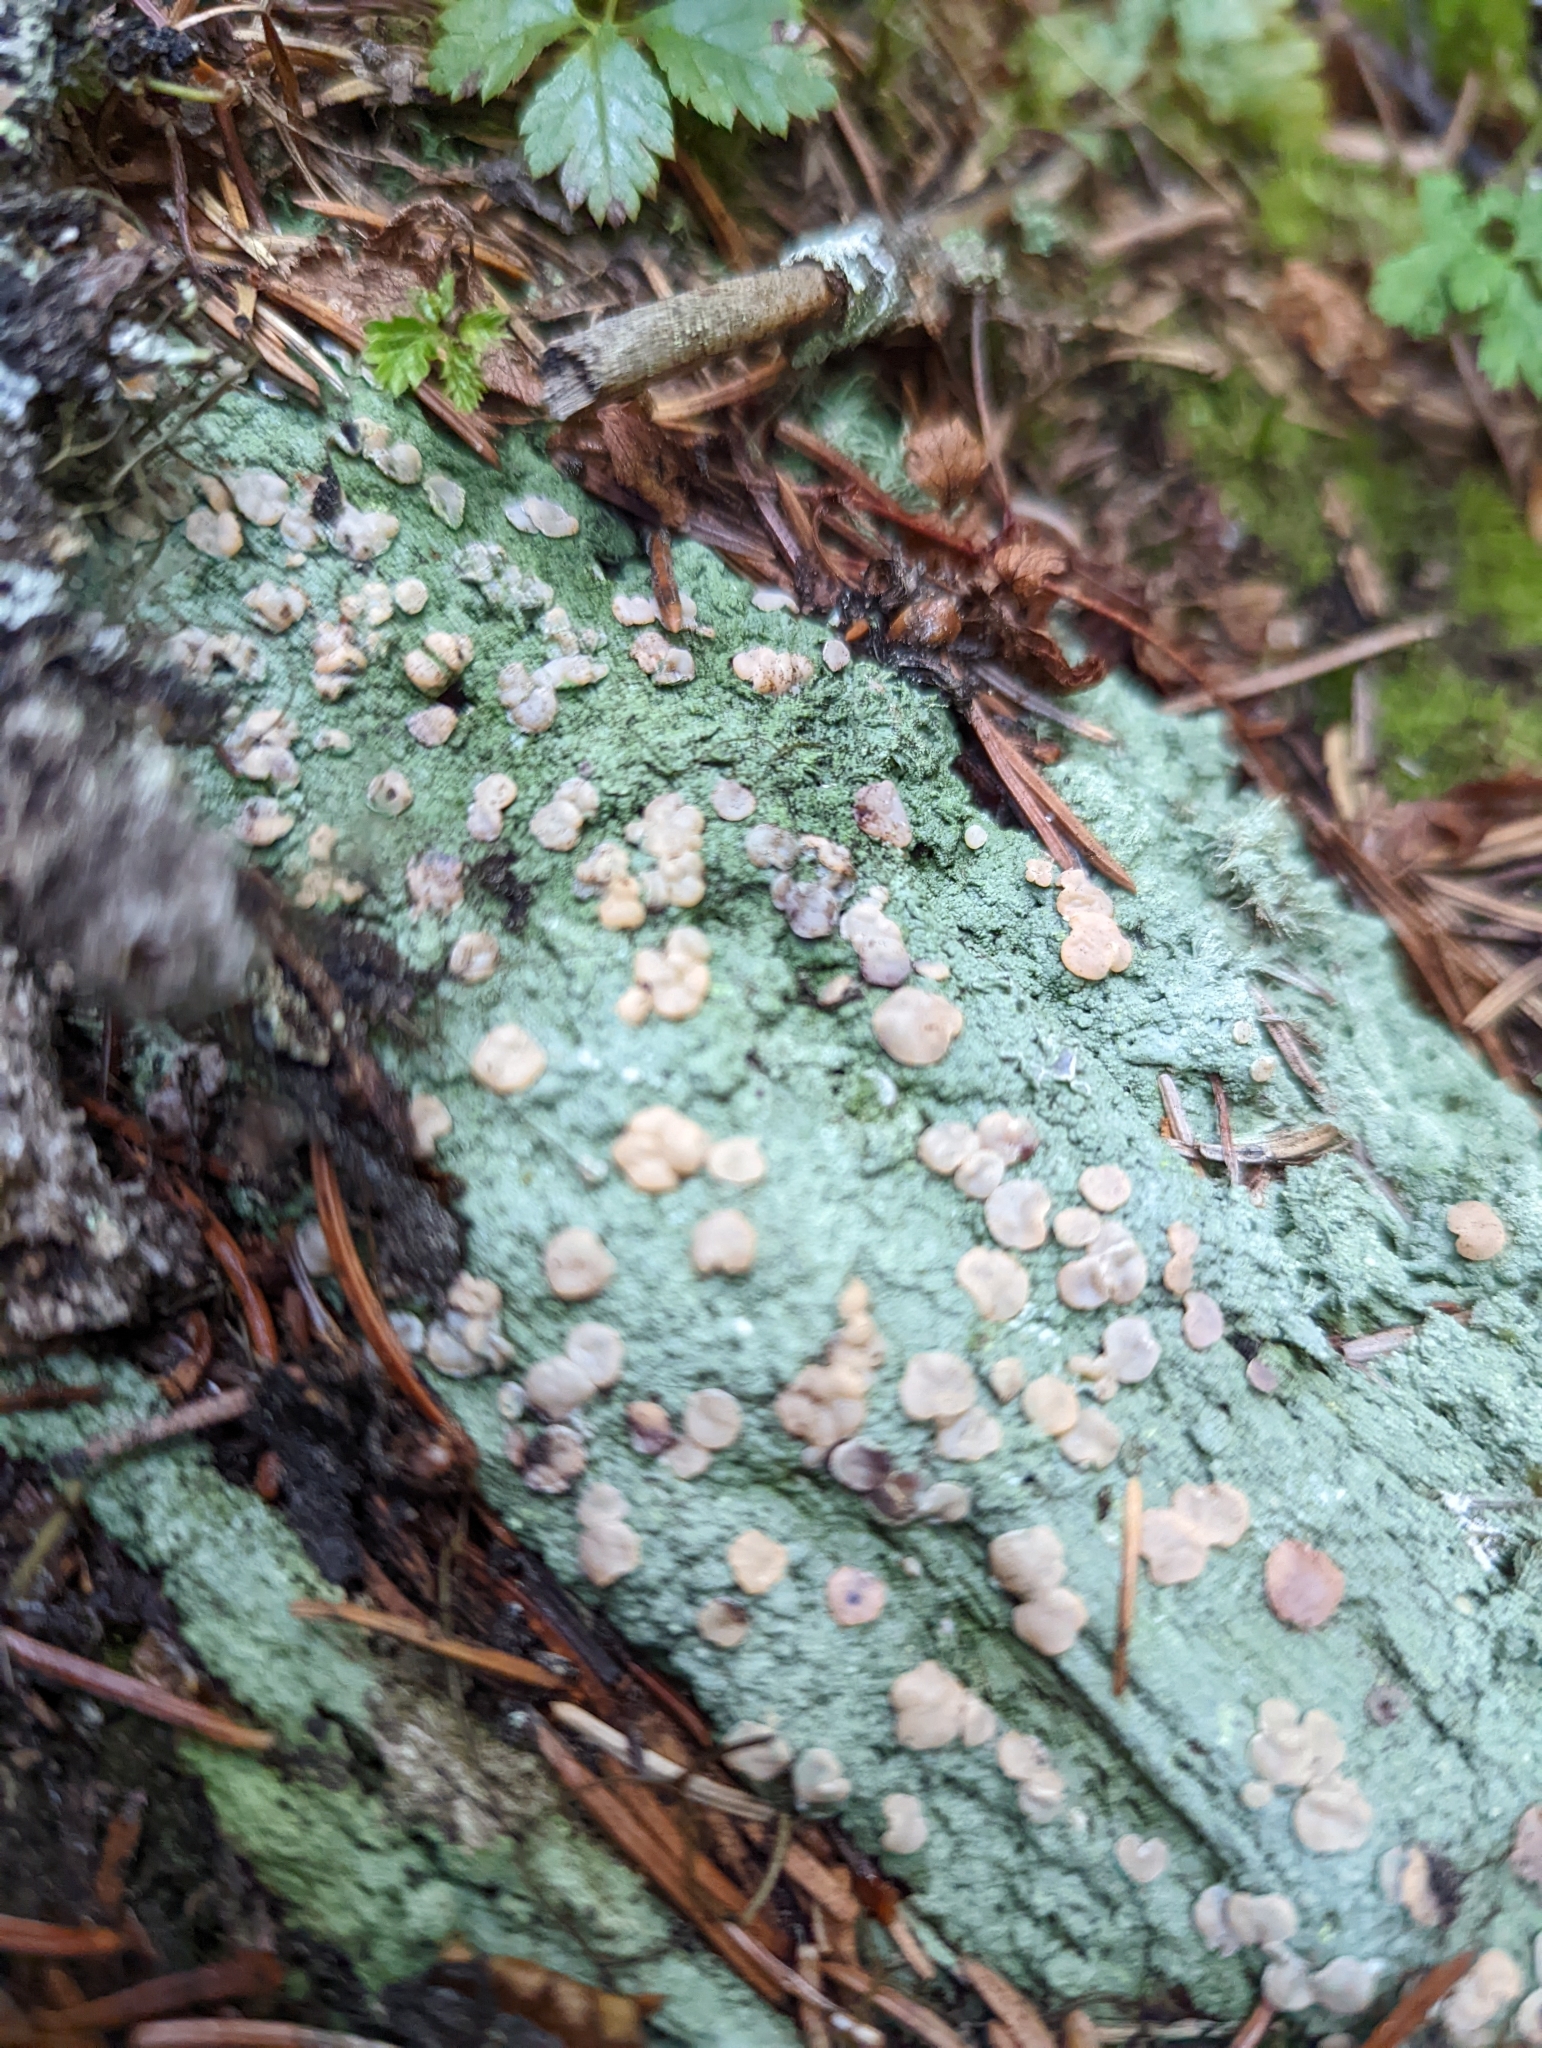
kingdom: Fungi
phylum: Ascomycota
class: Lecanoromycetes
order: Pertusariales
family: Icmadophilaceae
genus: Icmadophila
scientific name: Icmadophila ericetorum
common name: Candy lichen
